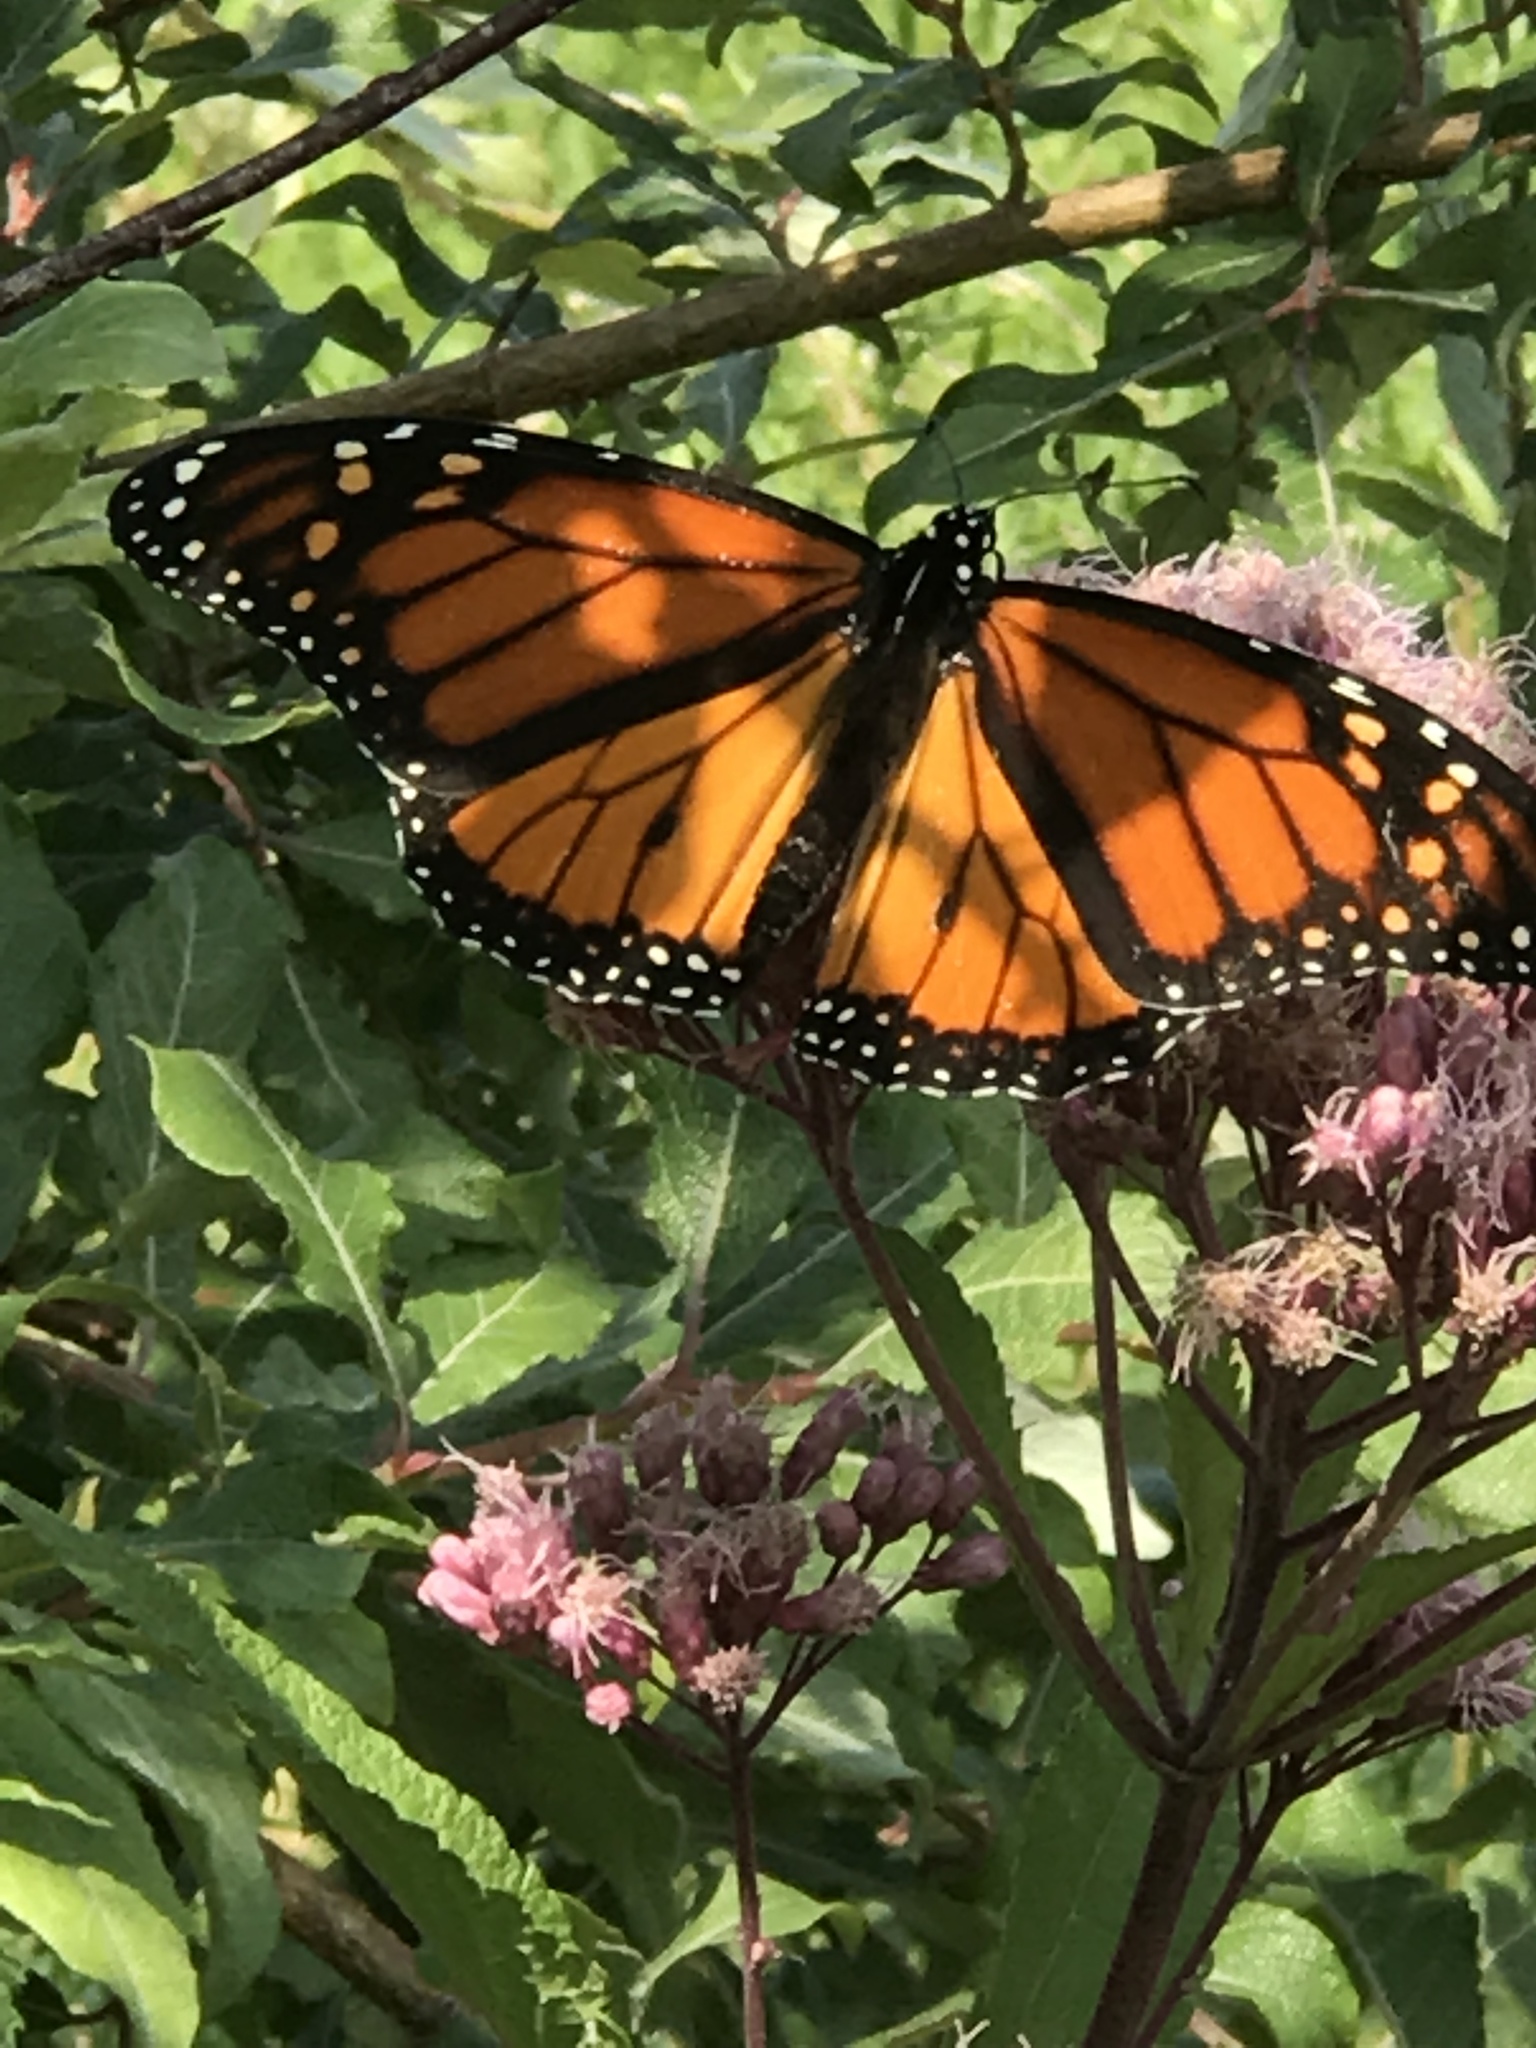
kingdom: Animalia
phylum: Arthropoda
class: Insecta
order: Lepidoptera
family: Nymphalidae
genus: Danaus
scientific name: Danaus plexippus
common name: Monarch
